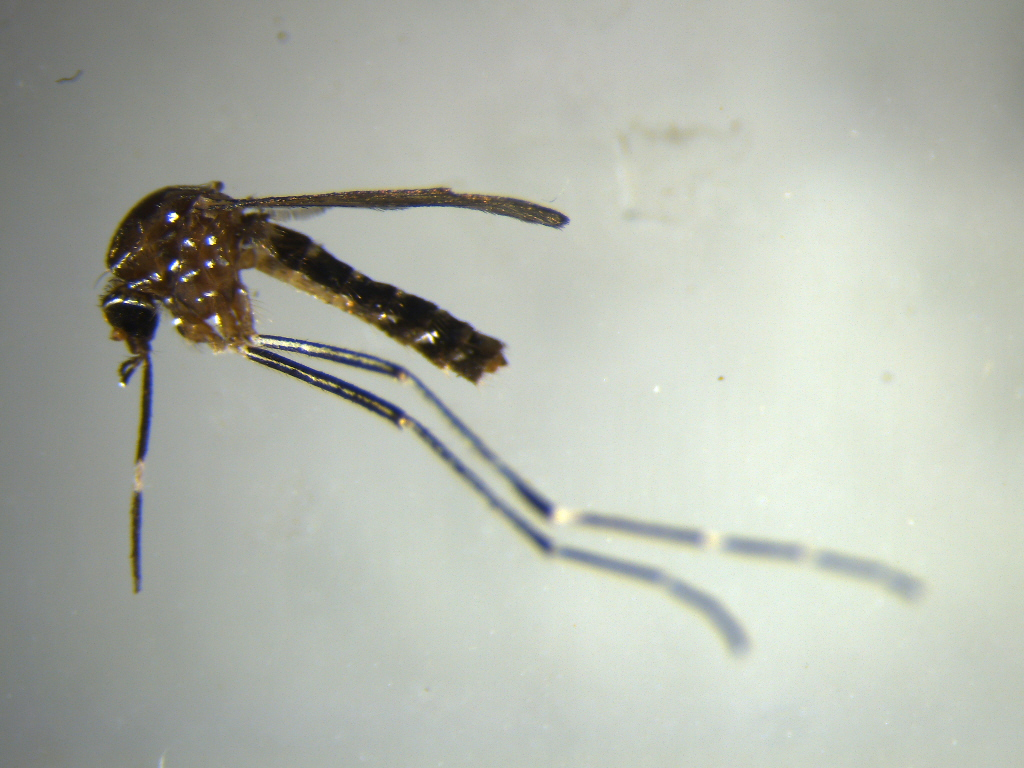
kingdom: Animalia
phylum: Arthropoda
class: Insecta
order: Diptera
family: Culicidae
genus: Aedes
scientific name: Aedes notoscriptus
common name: Australian backyard mosquito
